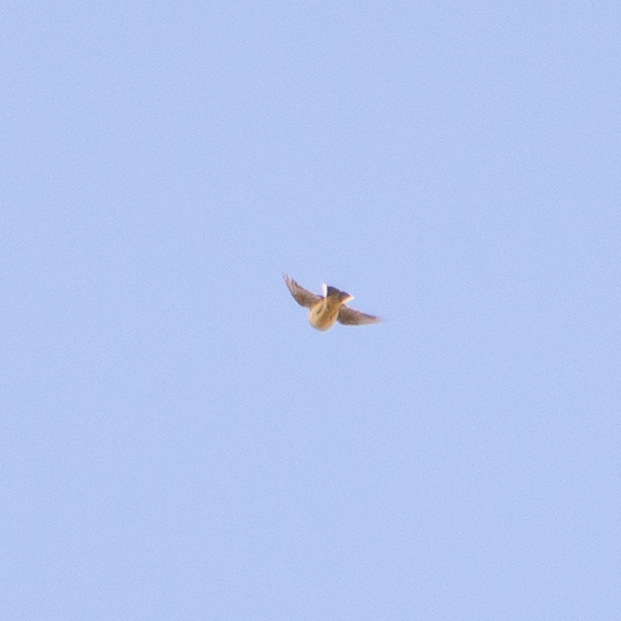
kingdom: Animalia
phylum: Chordata
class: Aves
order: Passeriformes
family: Alaudidae
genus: Alauda
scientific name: Alauda arvensis
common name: Eurasian skylark
